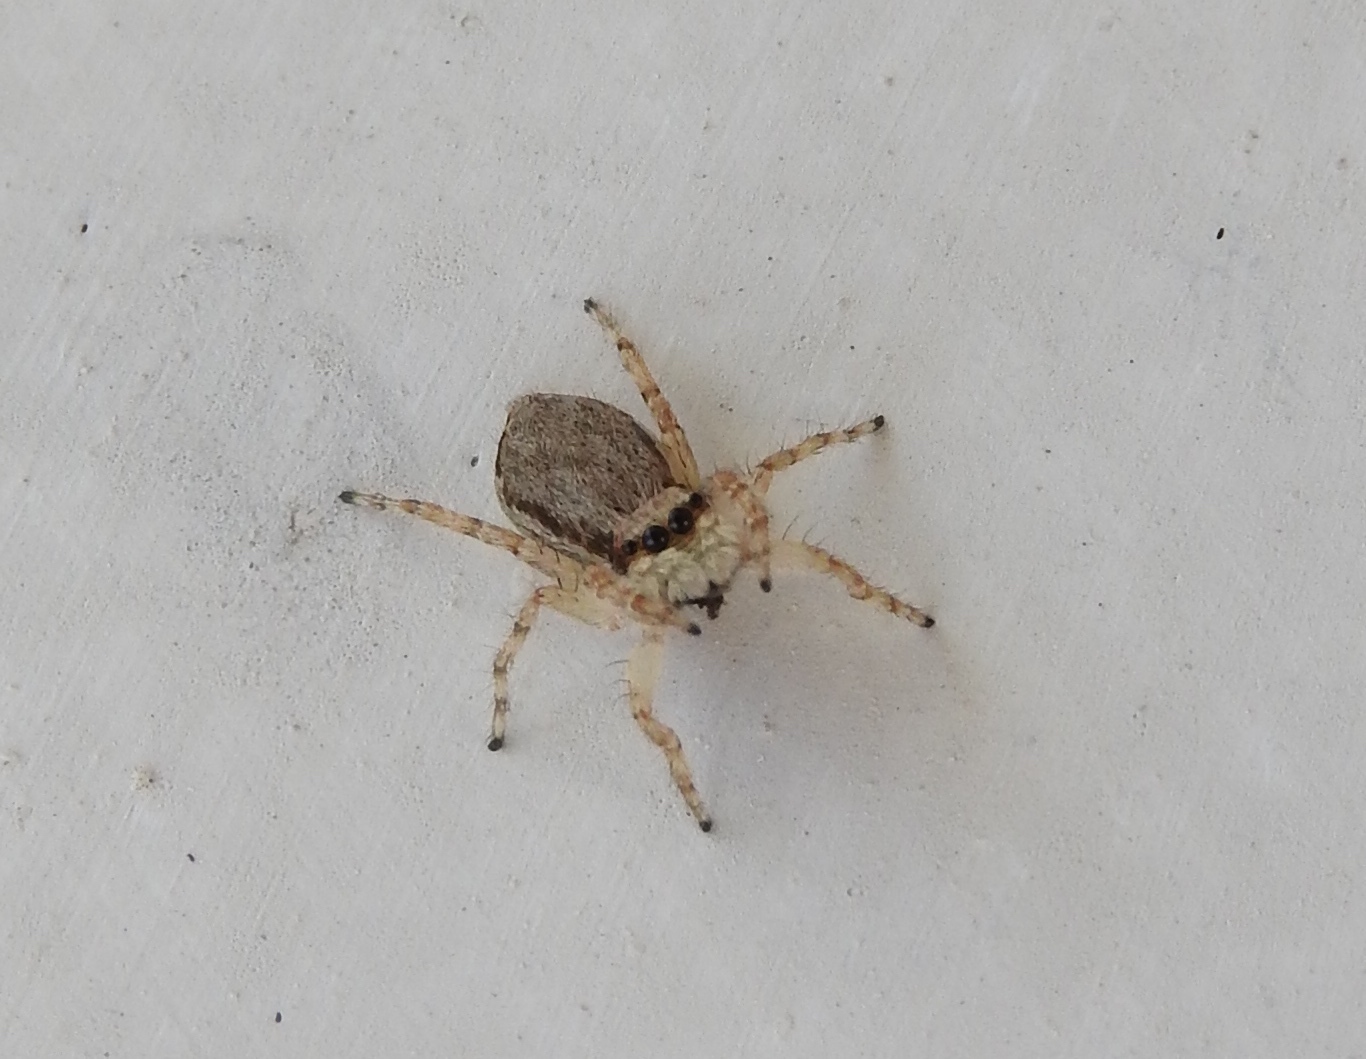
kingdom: Animalia
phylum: Arthropoda
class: Arachnida
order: Araneae
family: Salticidae
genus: Menemerus
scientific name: Menemerus bivittatus
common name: Gray wall jumper
